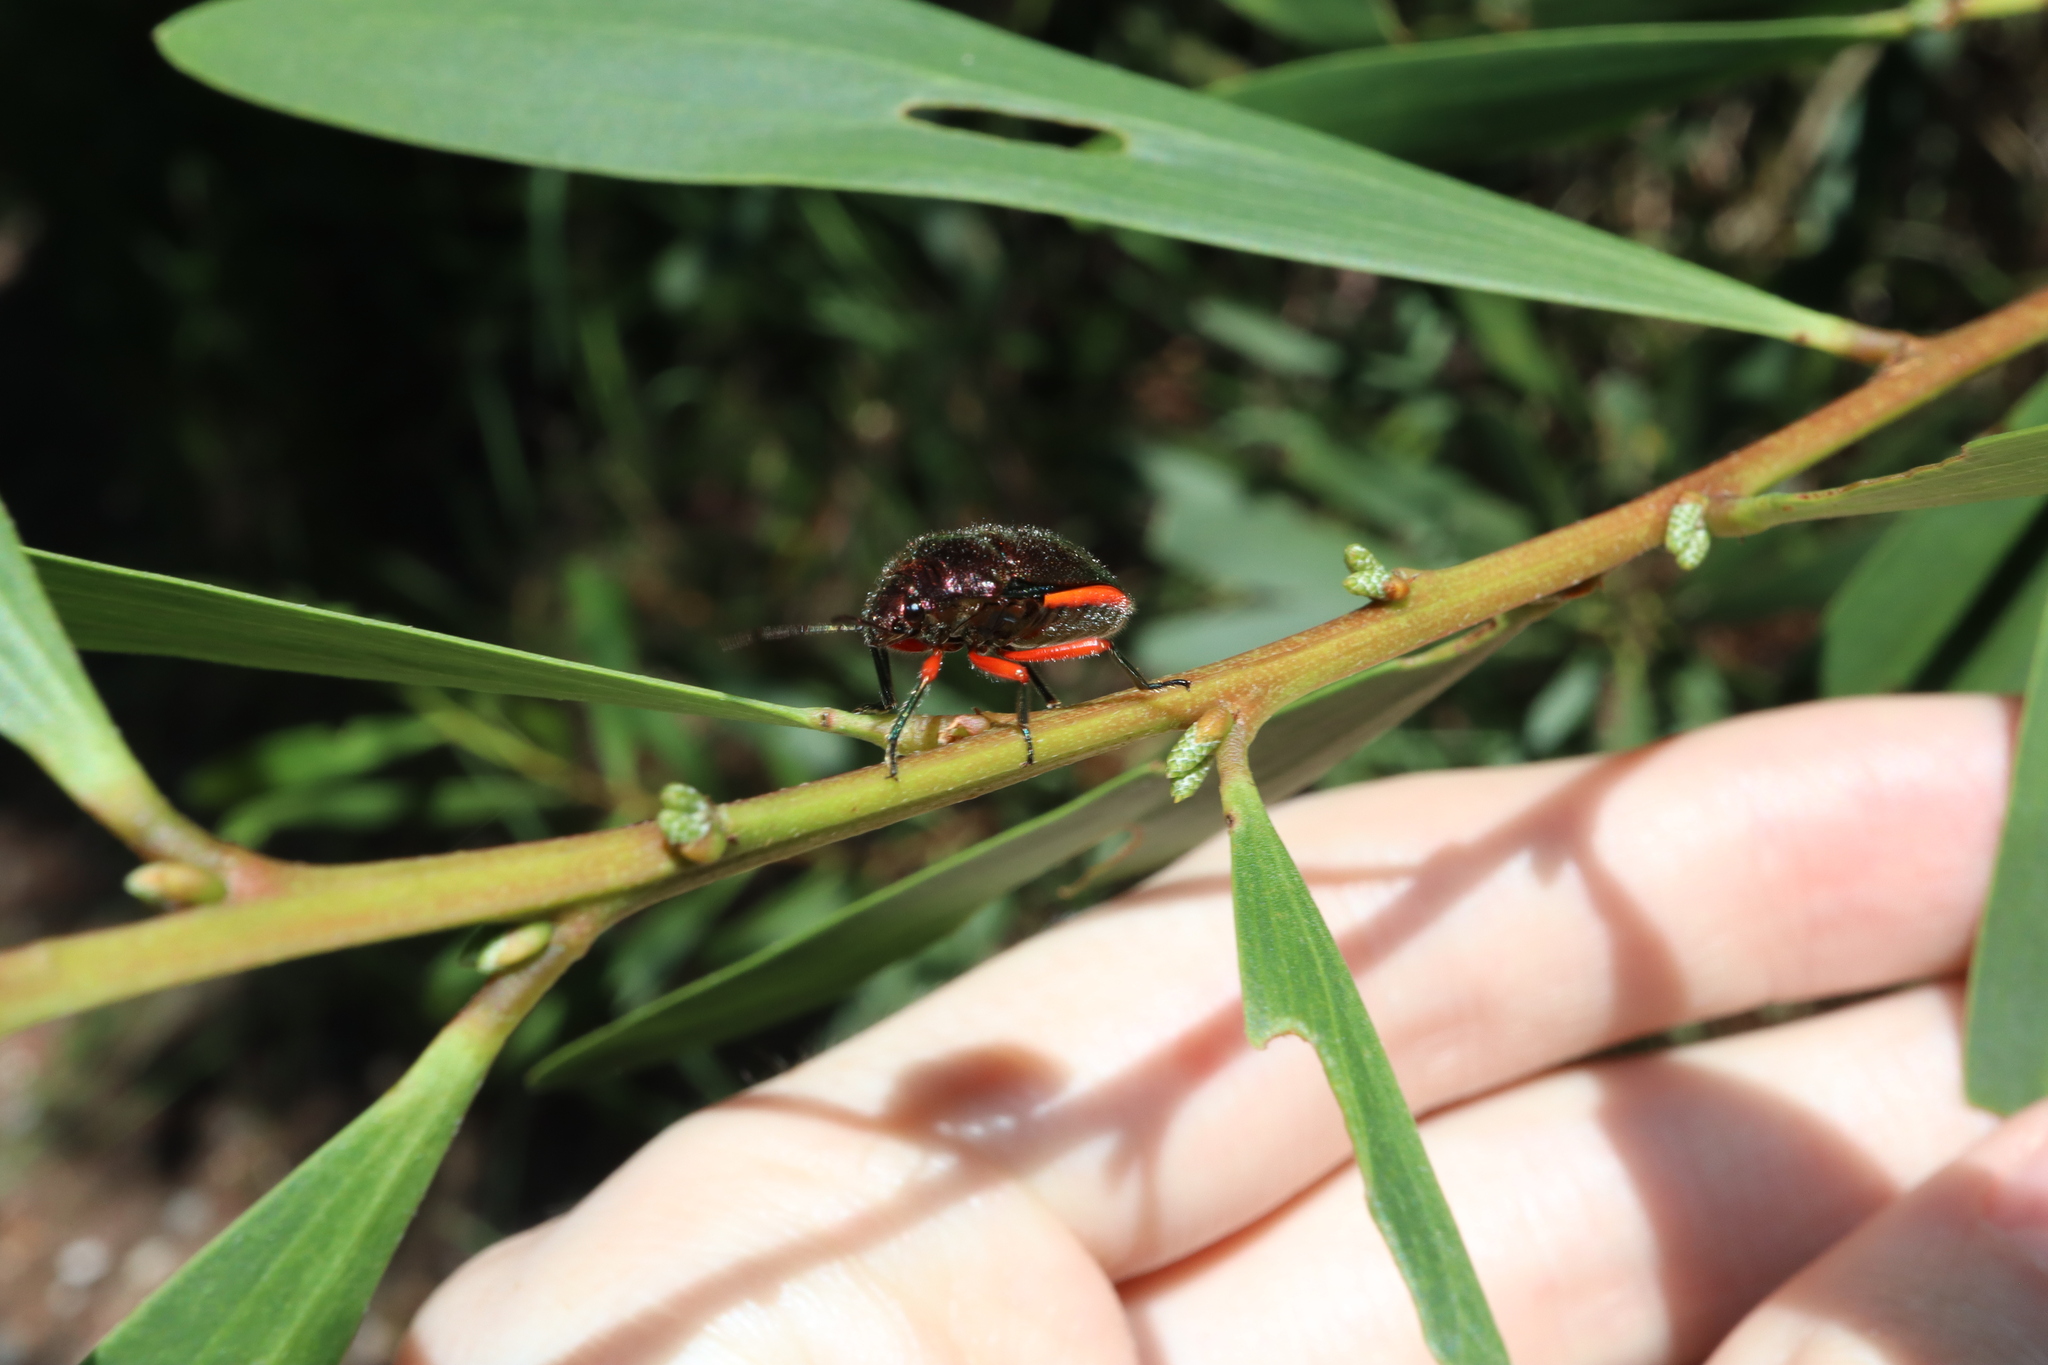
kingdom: Animalia
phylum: Arthropoda
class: Insecta
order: Hemiptera
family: Scutelleridae
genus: Lampromicra
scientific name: Lampromicra
